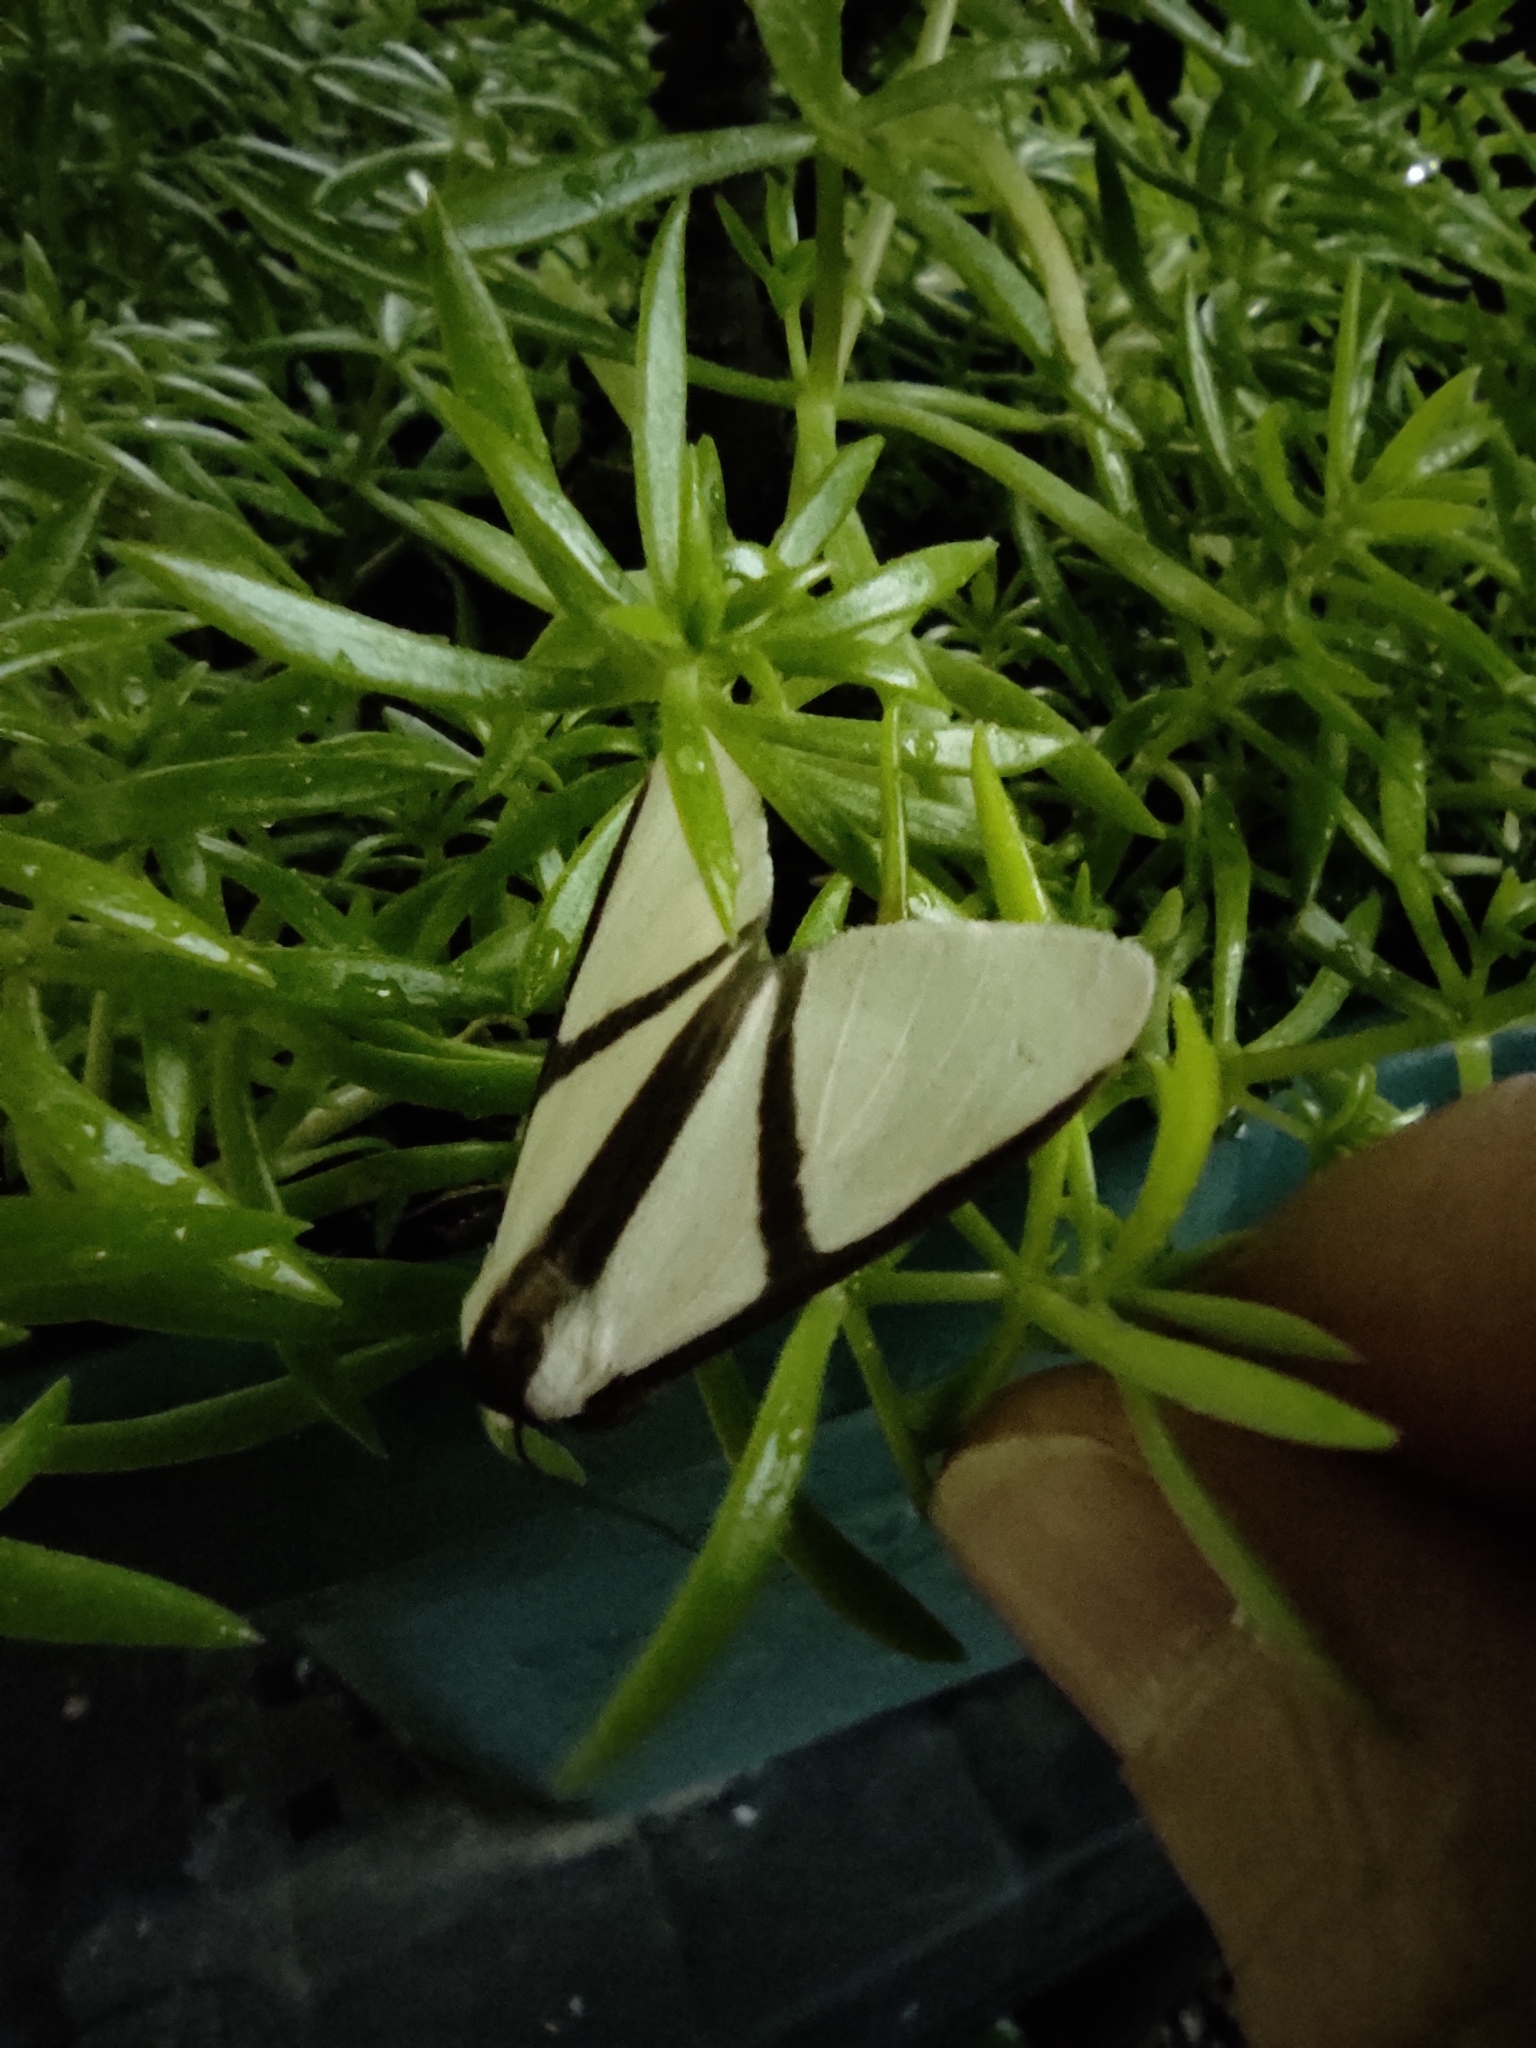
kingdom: Animalia
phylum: Arthropoda
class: Insecta
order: Lepidoptera
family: Erebidae
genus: Turuptiana
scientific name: Turuptiana obliqua
